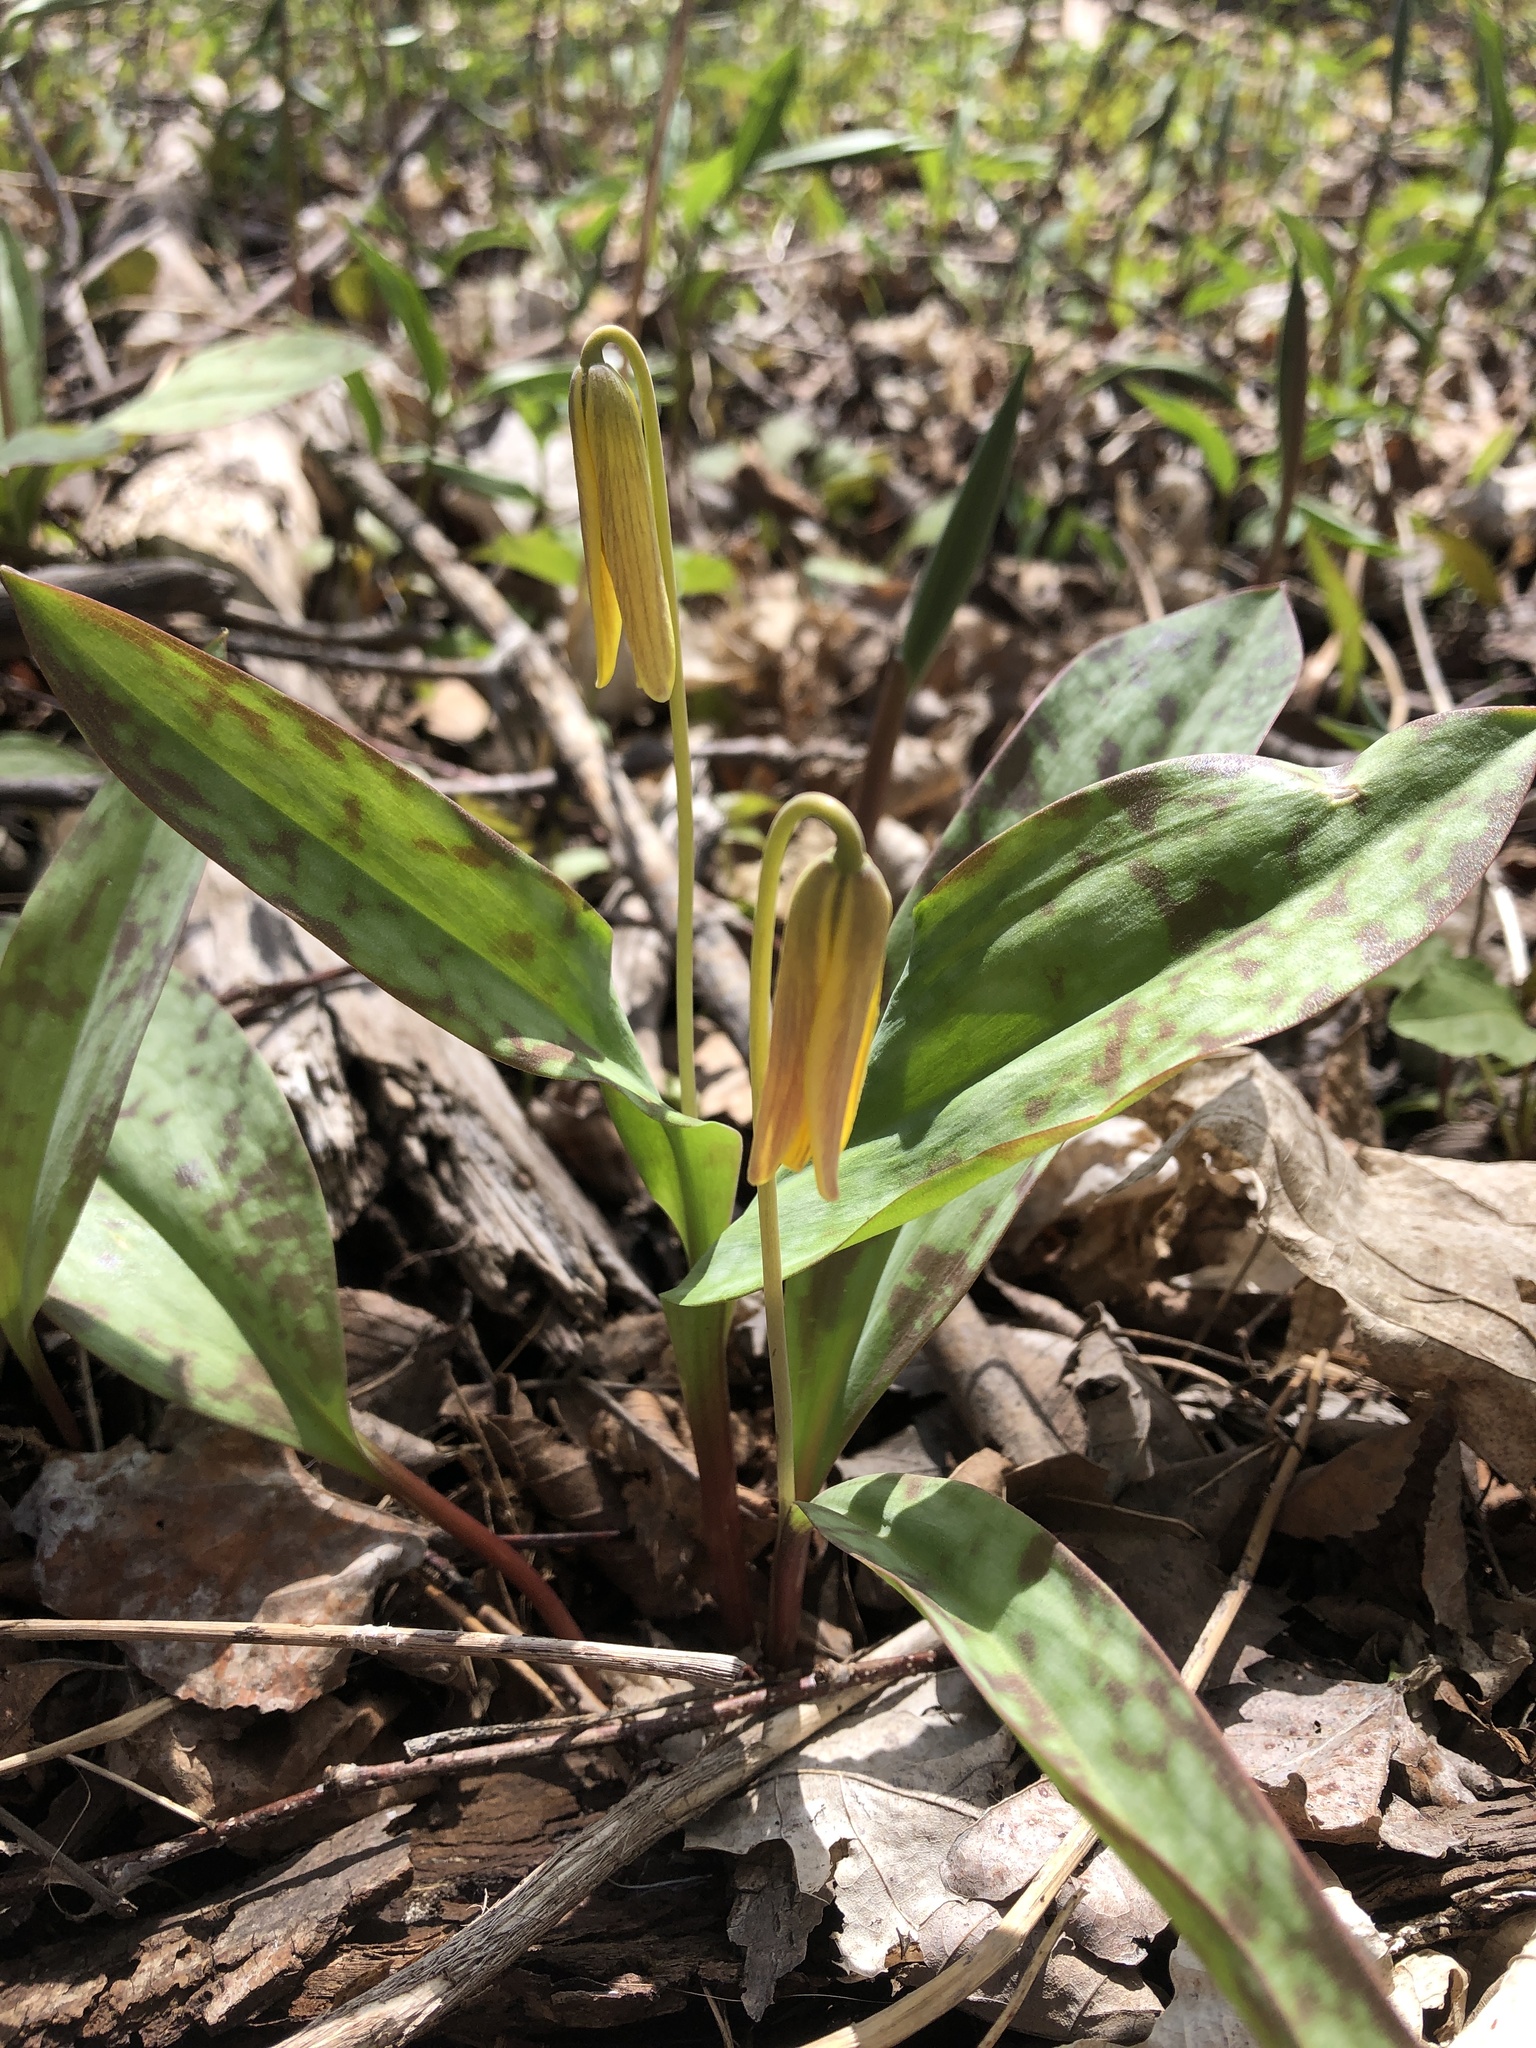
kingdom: Plantae
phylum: Tracheophyta
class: Liliopsida
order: Liliales
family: Liliaceae
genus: Erythronium
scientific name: Erythronium americanum
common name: Yellow adder's-tongue
